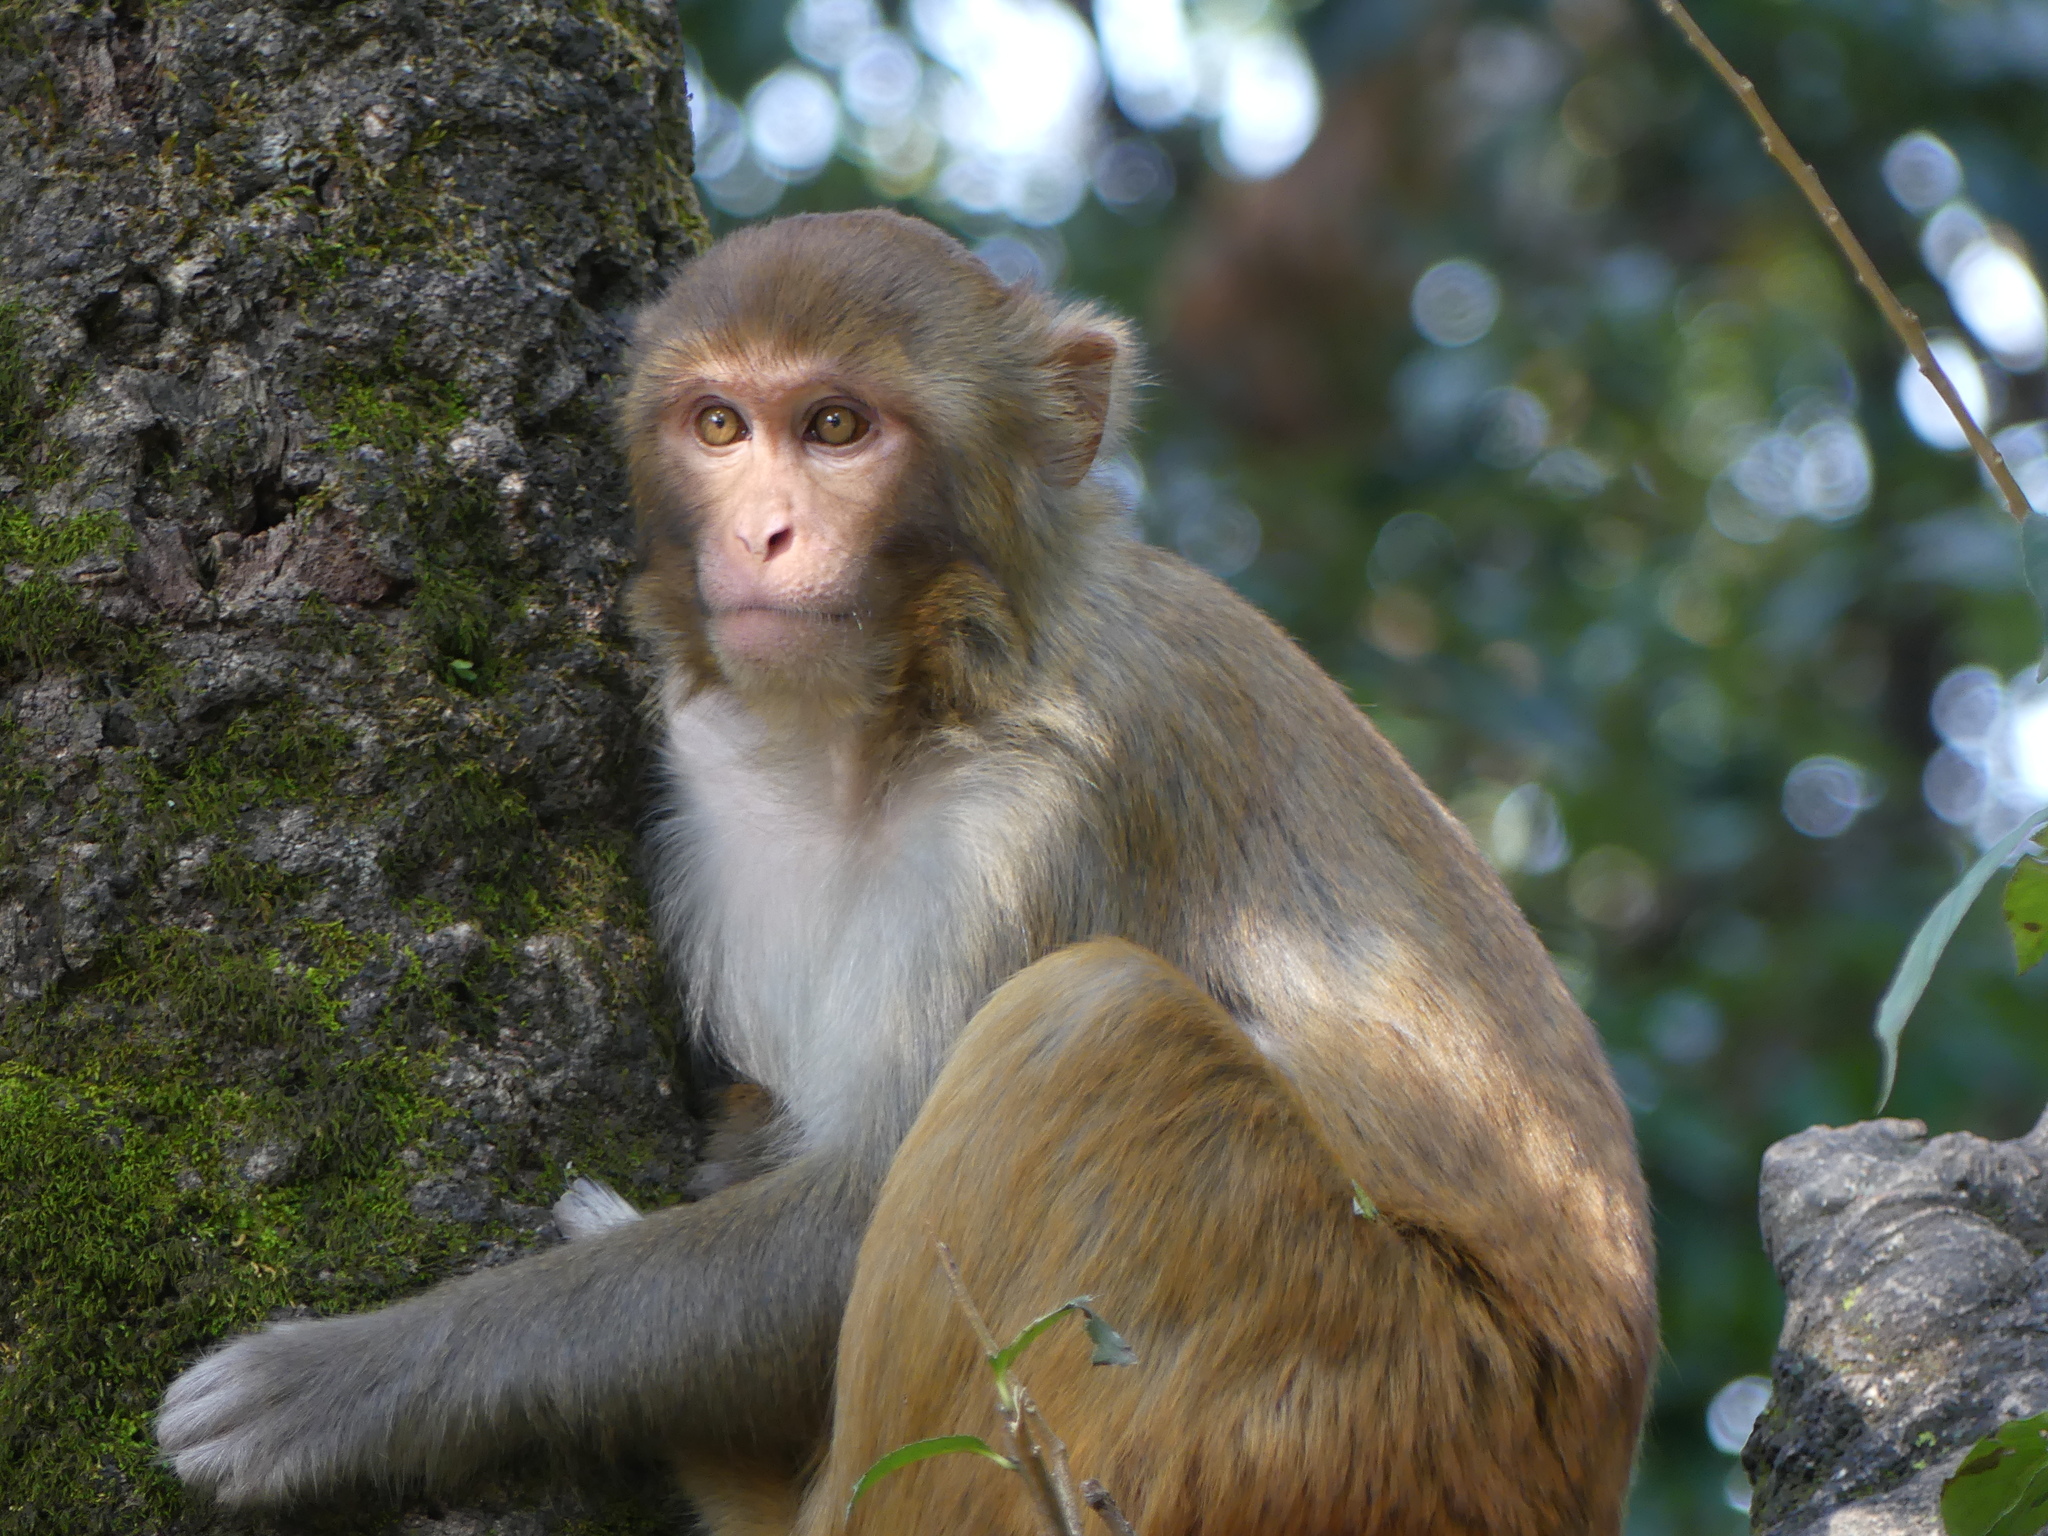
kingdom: Animalia
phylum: Chordata
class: Mammalia
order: Primates
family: Cercopithecidae
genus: Macaca
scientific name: Macaca mulatta
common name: Rhesus monkey
